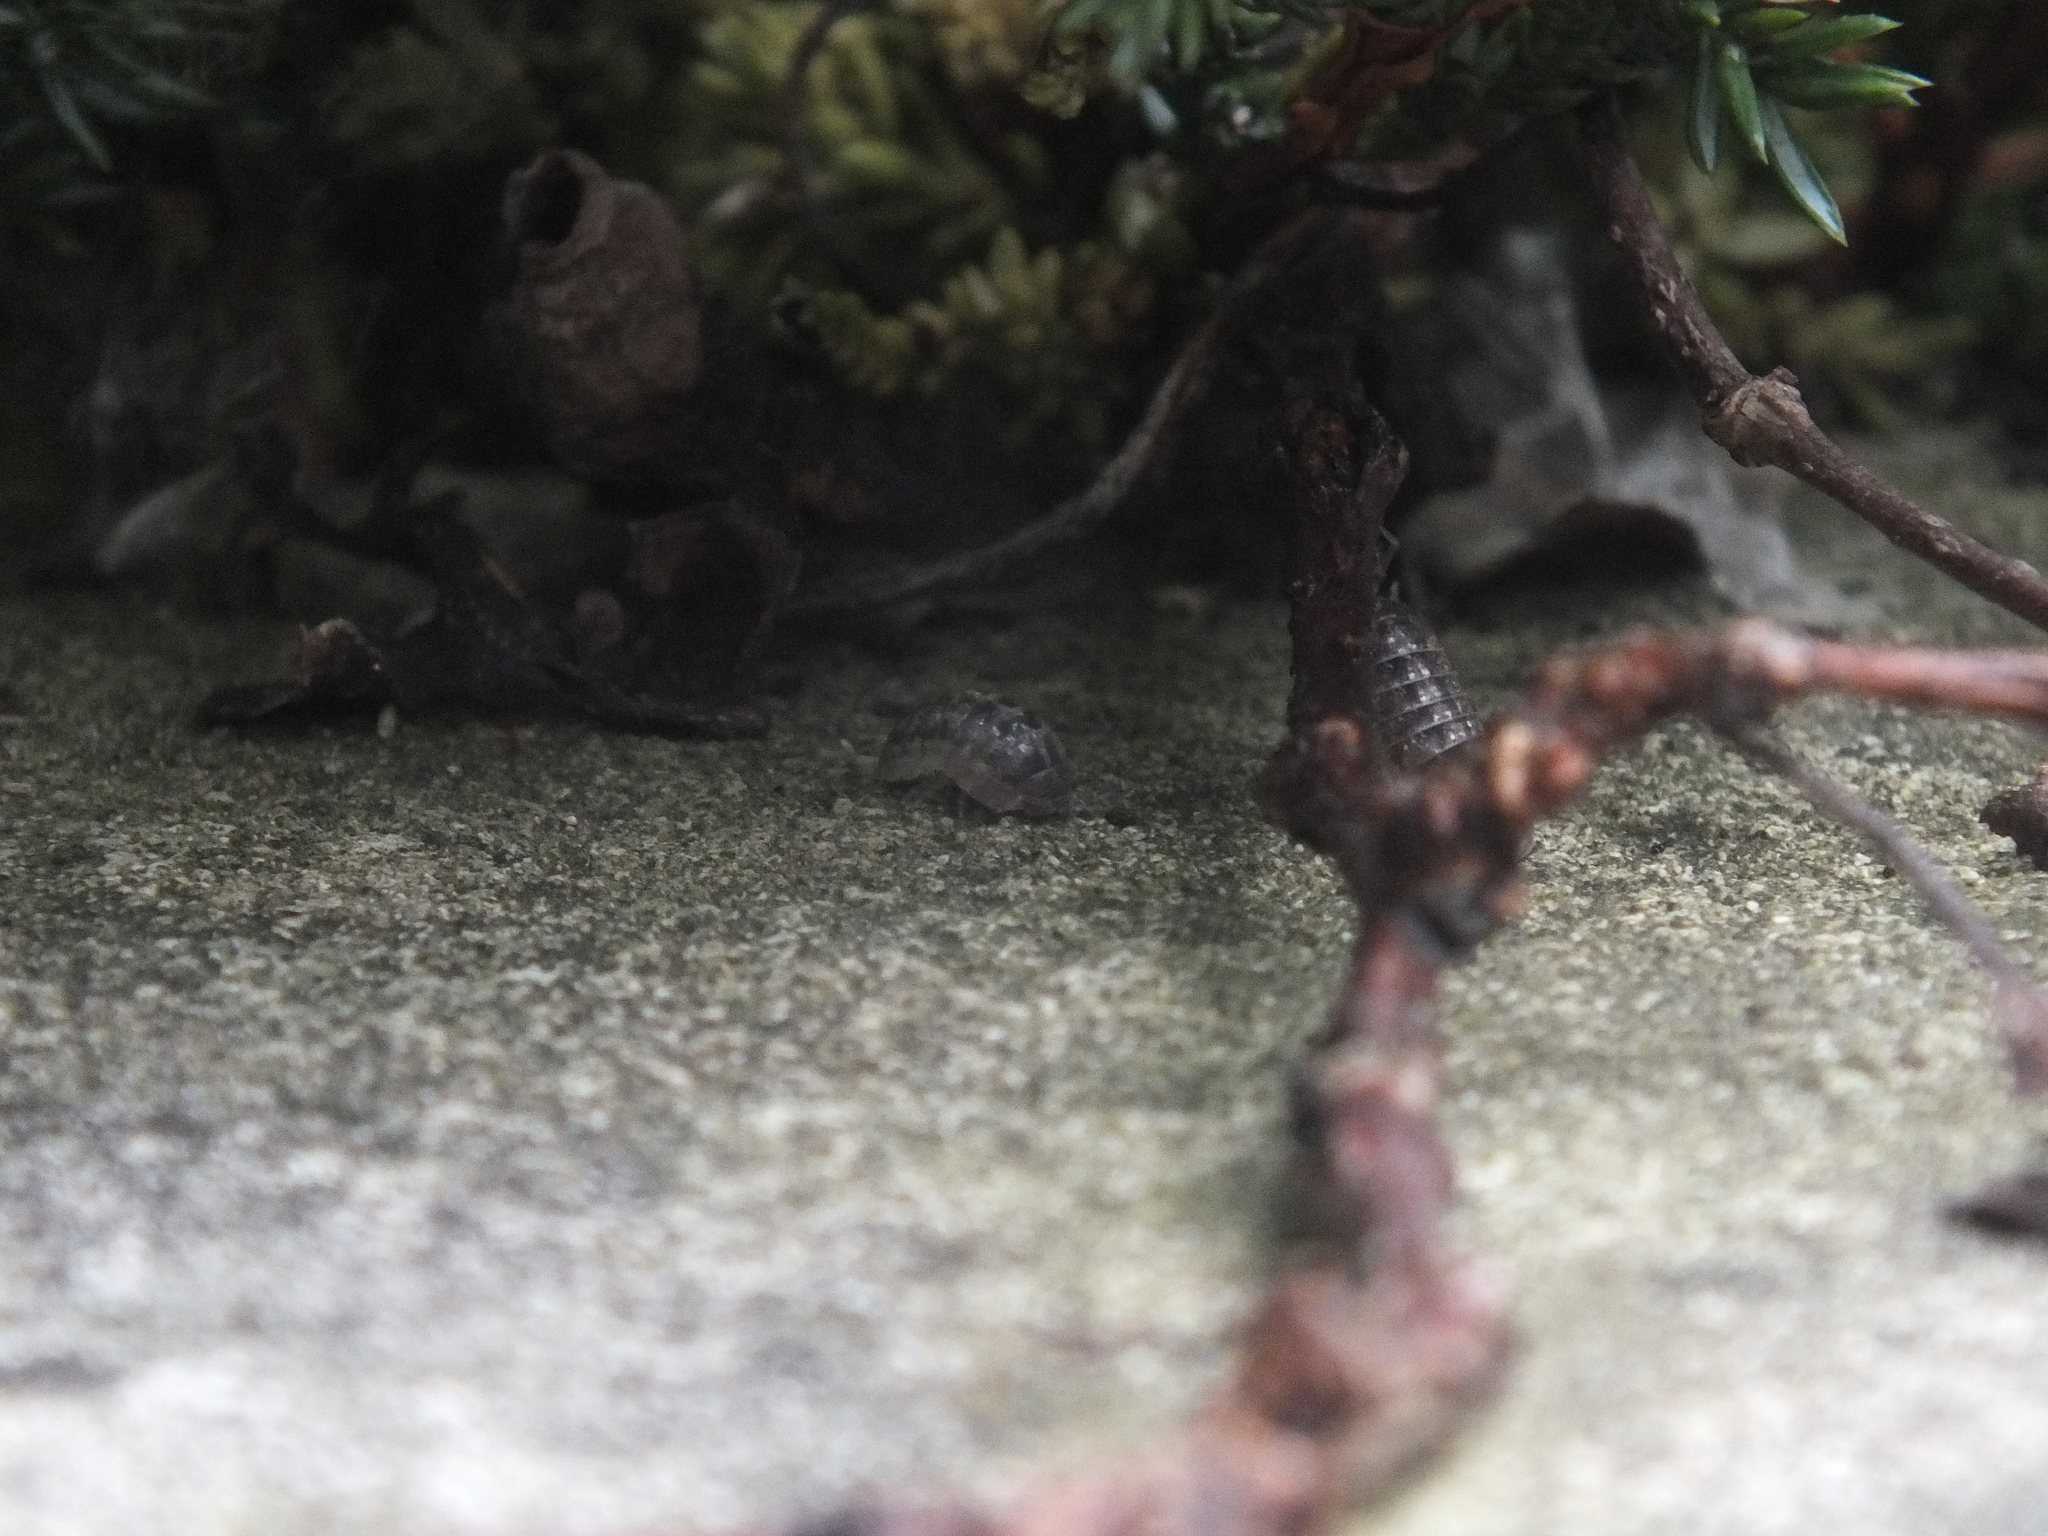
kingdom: Animalia
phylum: Arthropoda
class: Malacostraca
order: Isopoda
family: Armadillidiidae
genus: Armadillidium
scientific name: Armadillidium vulgare
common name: Common pill woodlouse
